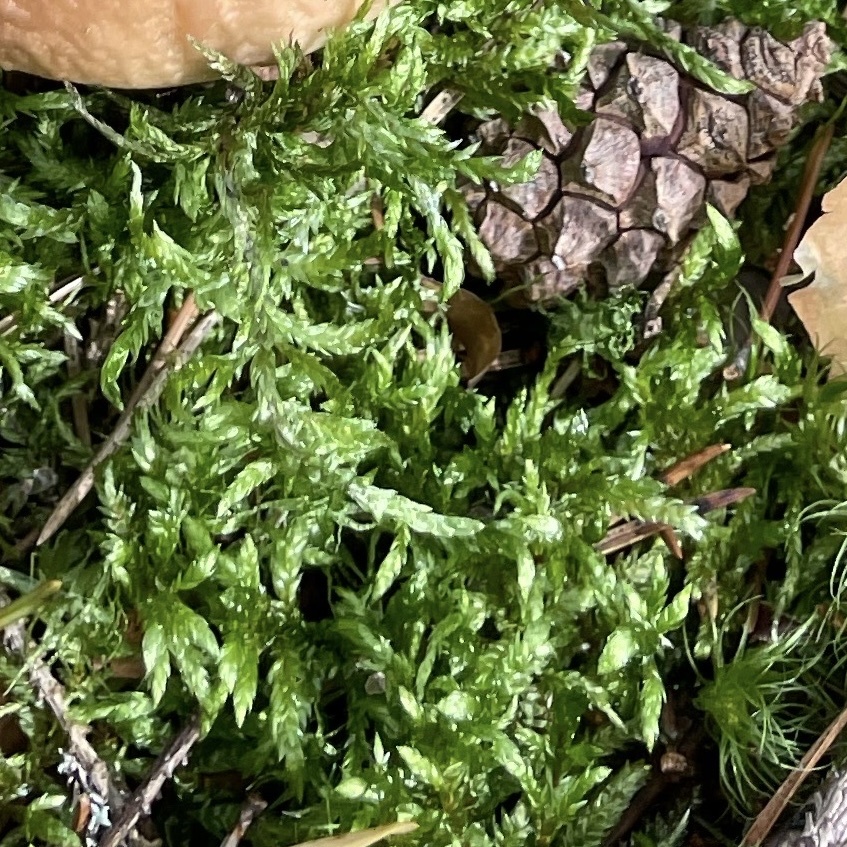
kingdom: Plantae
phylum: Bryophyta
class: Bryopsida
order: Hypnales
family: Hylocomiaceae
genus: Pleurozium
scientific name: Pleurozium schreberi
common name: Red-stemmed feather moss
